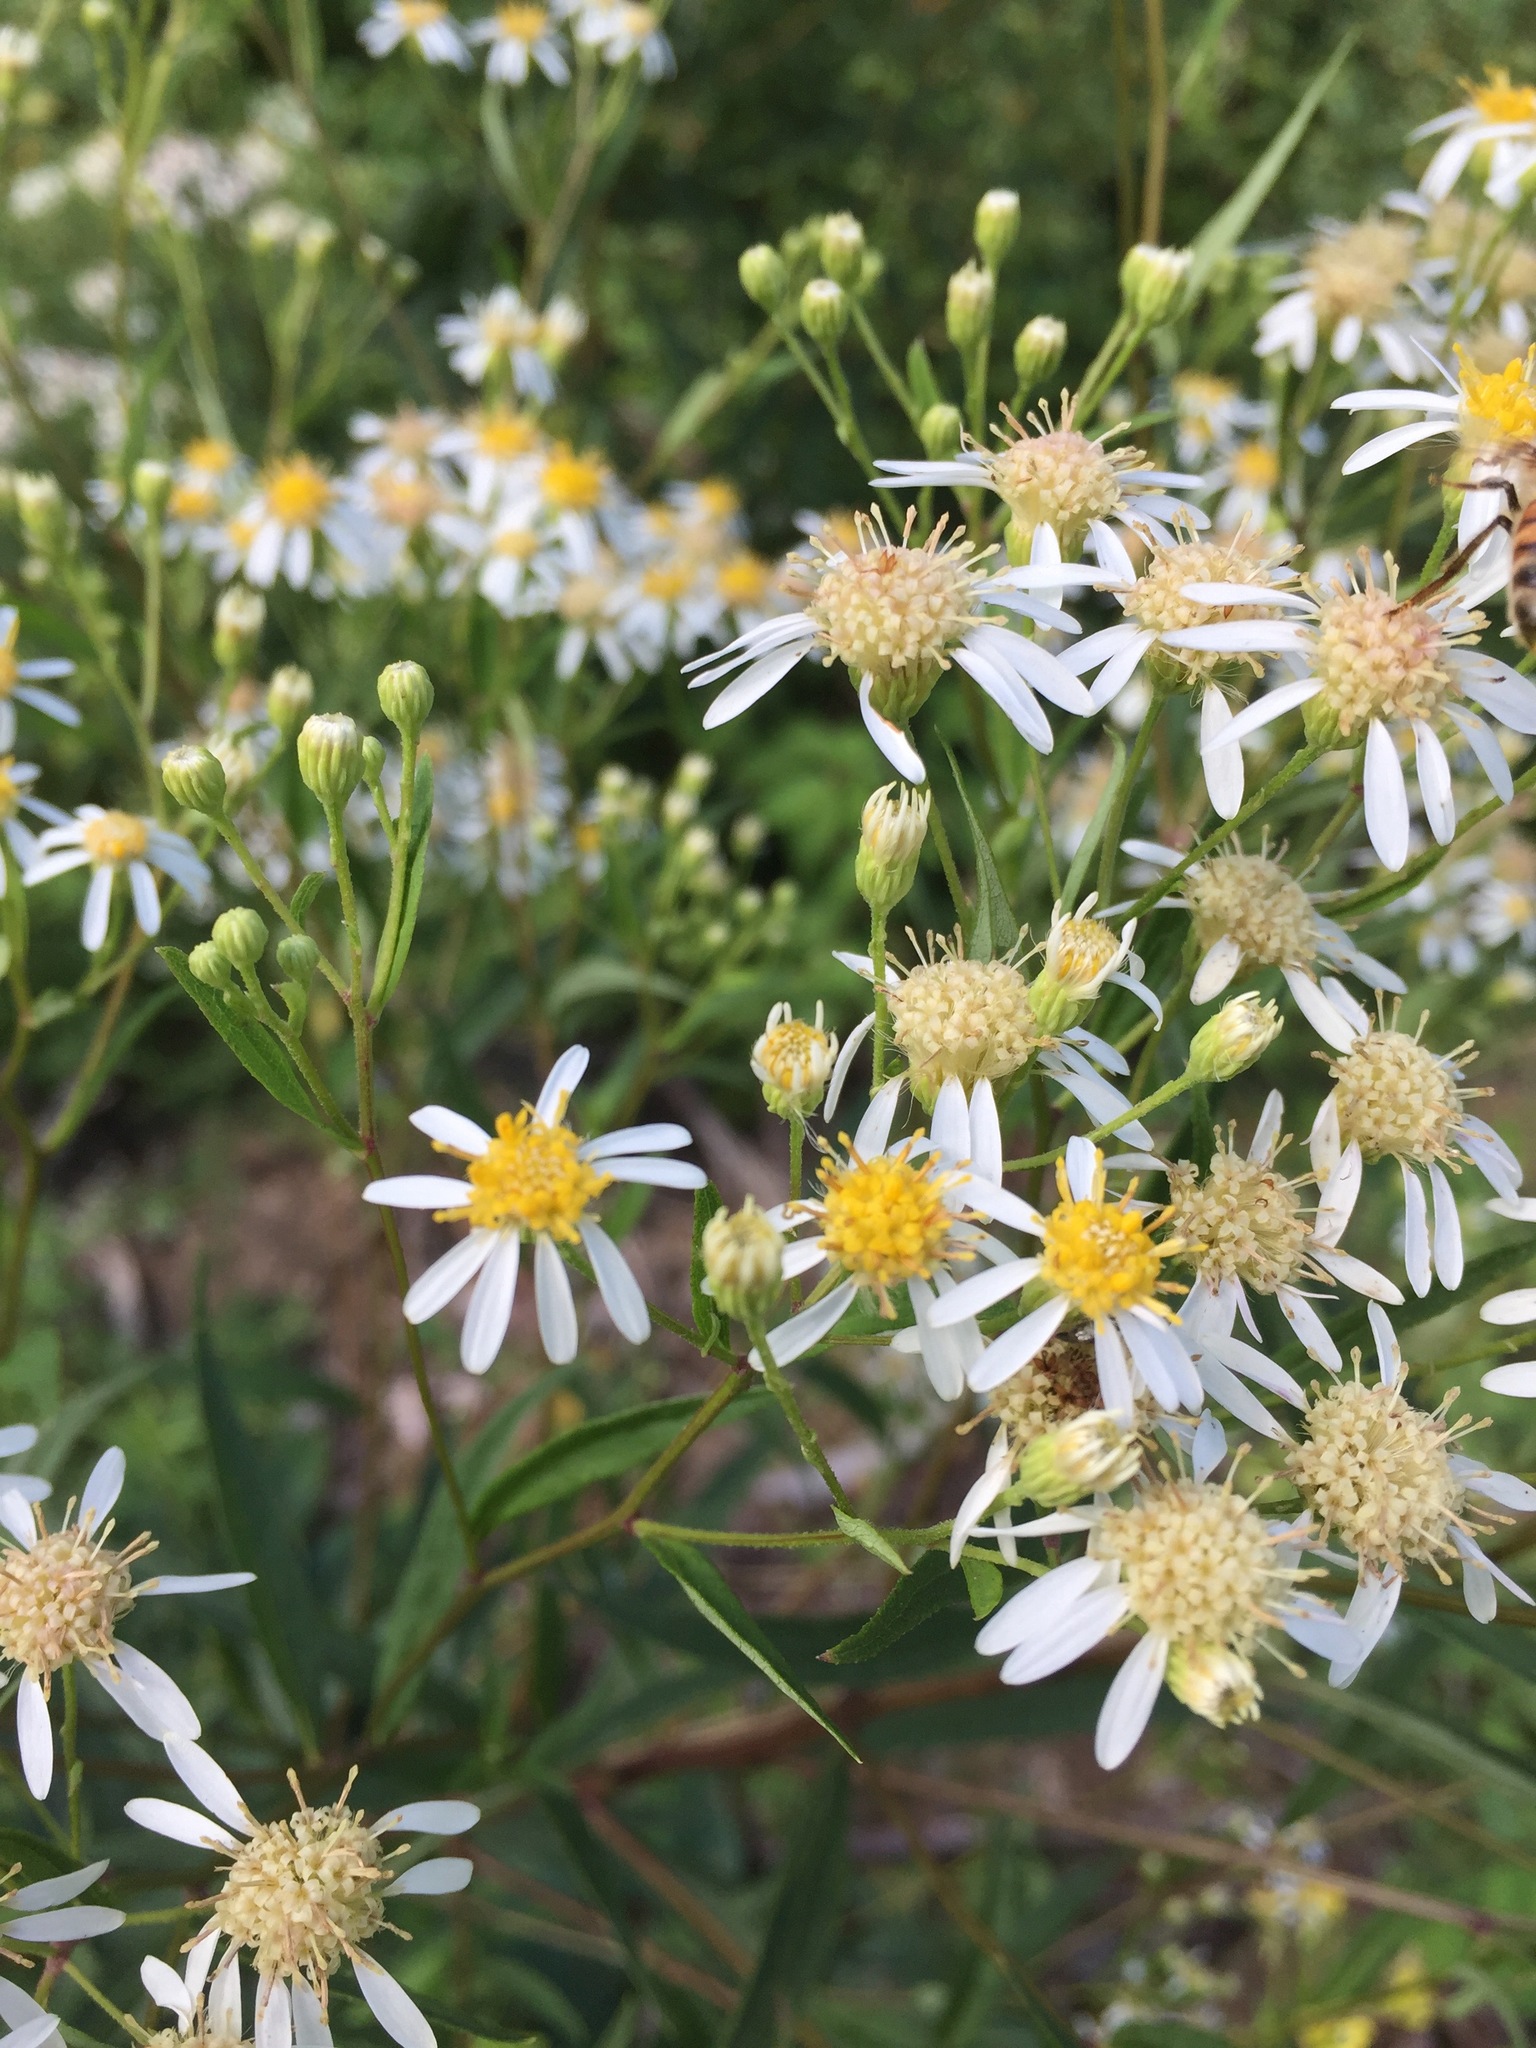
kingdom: Plantae
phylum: Tracheophyta
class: Magnoliopsida
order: Asterales
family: Asteraceae
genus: Doellingeria
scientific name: Doellingeria umbellata
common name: Flat-top white aster
